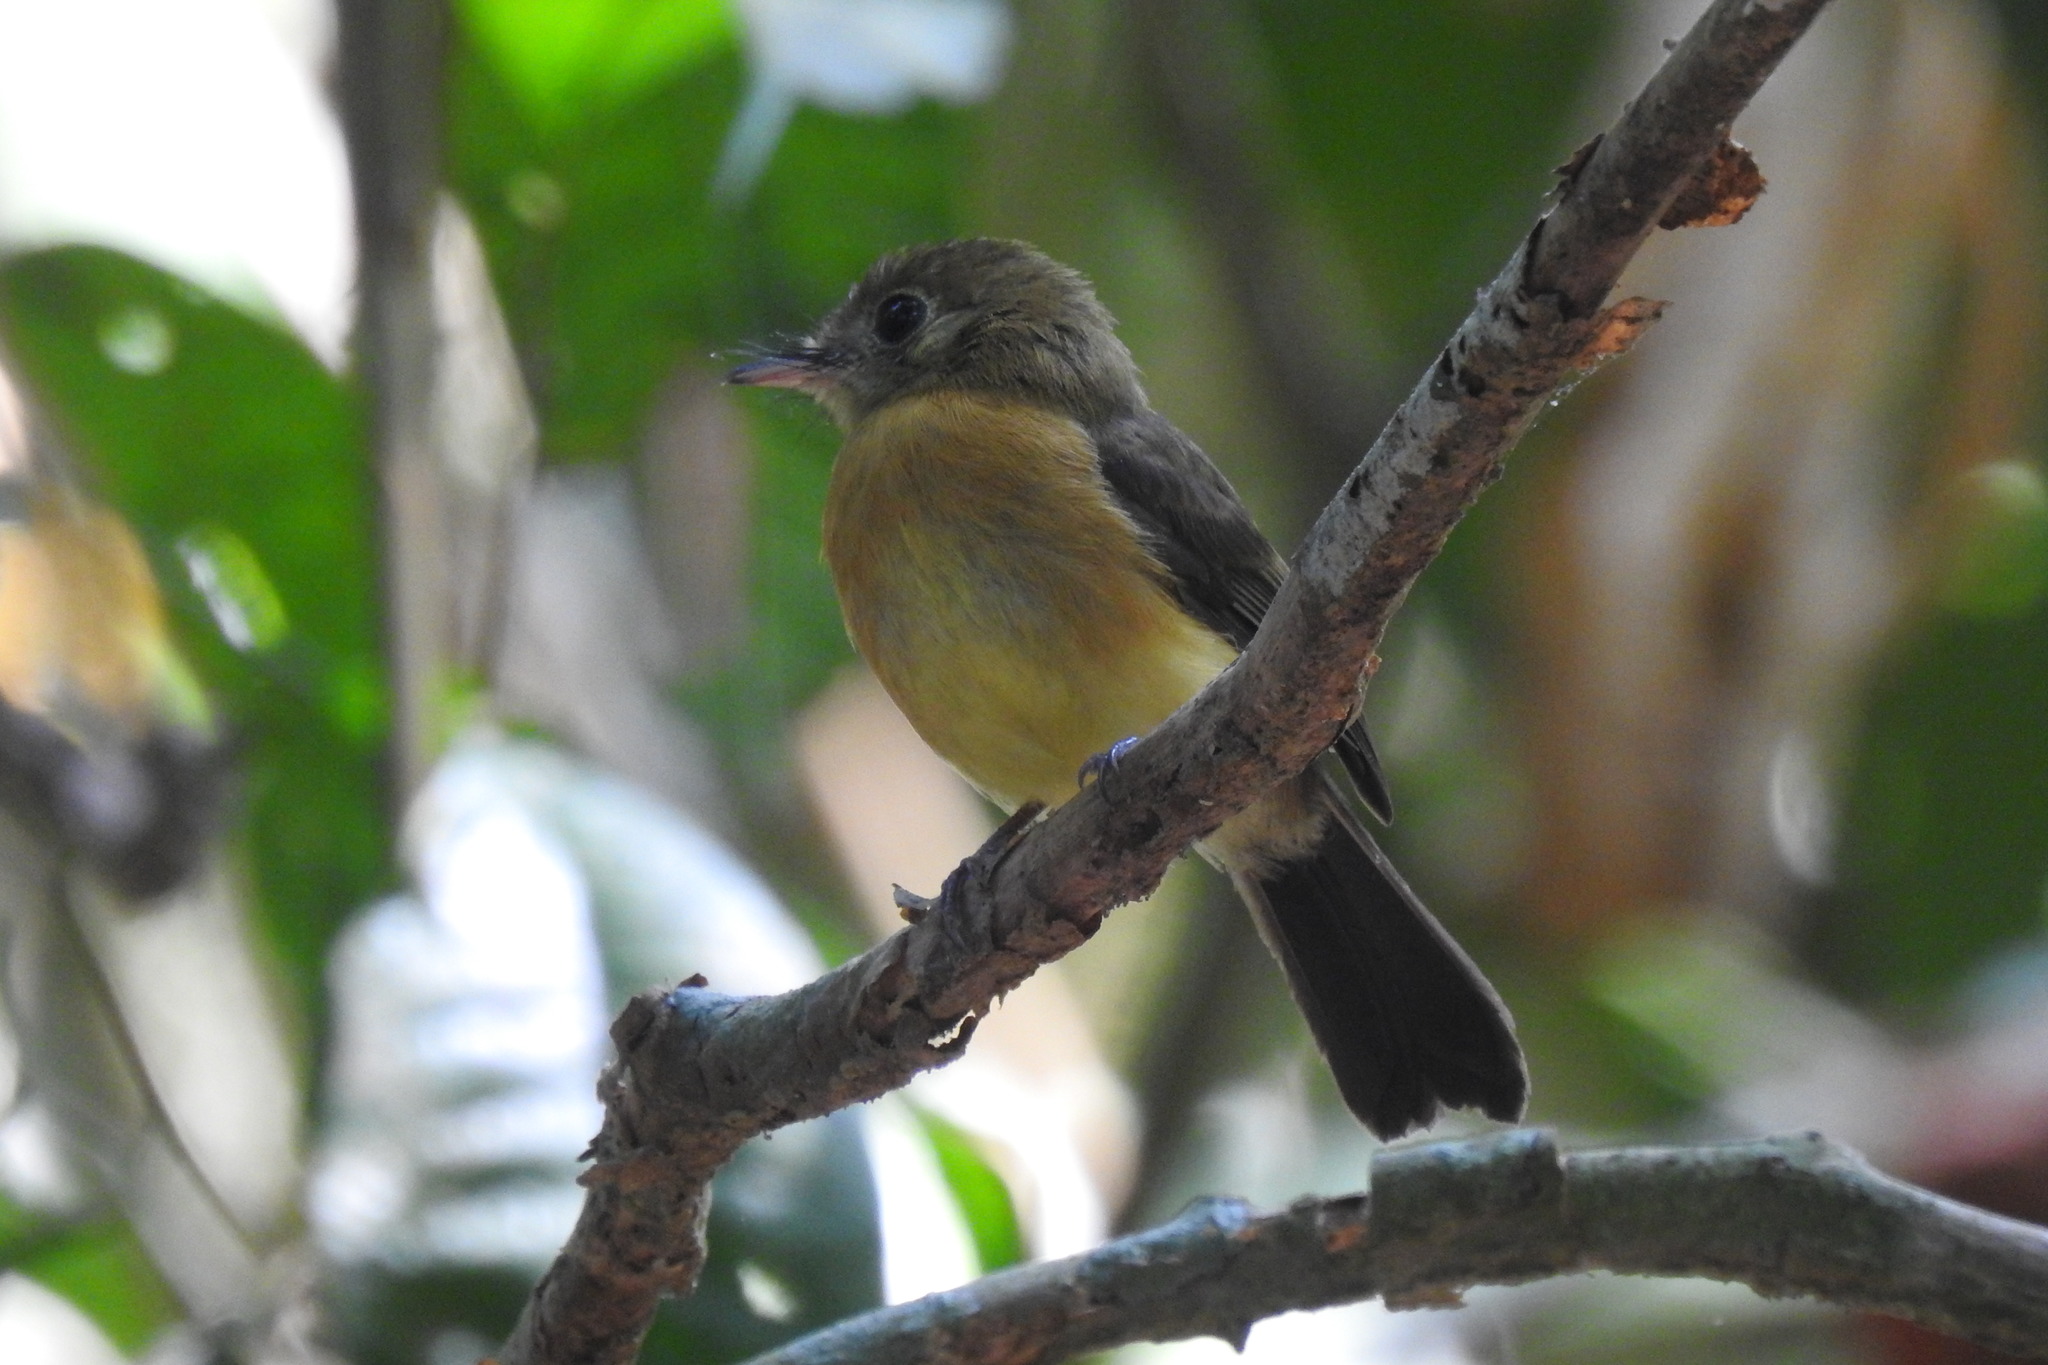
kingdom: Animalia
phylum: Chordata
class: Aves
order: Passeriformes
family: Tyrannidae
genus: Myiobius
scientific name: Myiobius barbatus
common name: Whiskered myiobius
